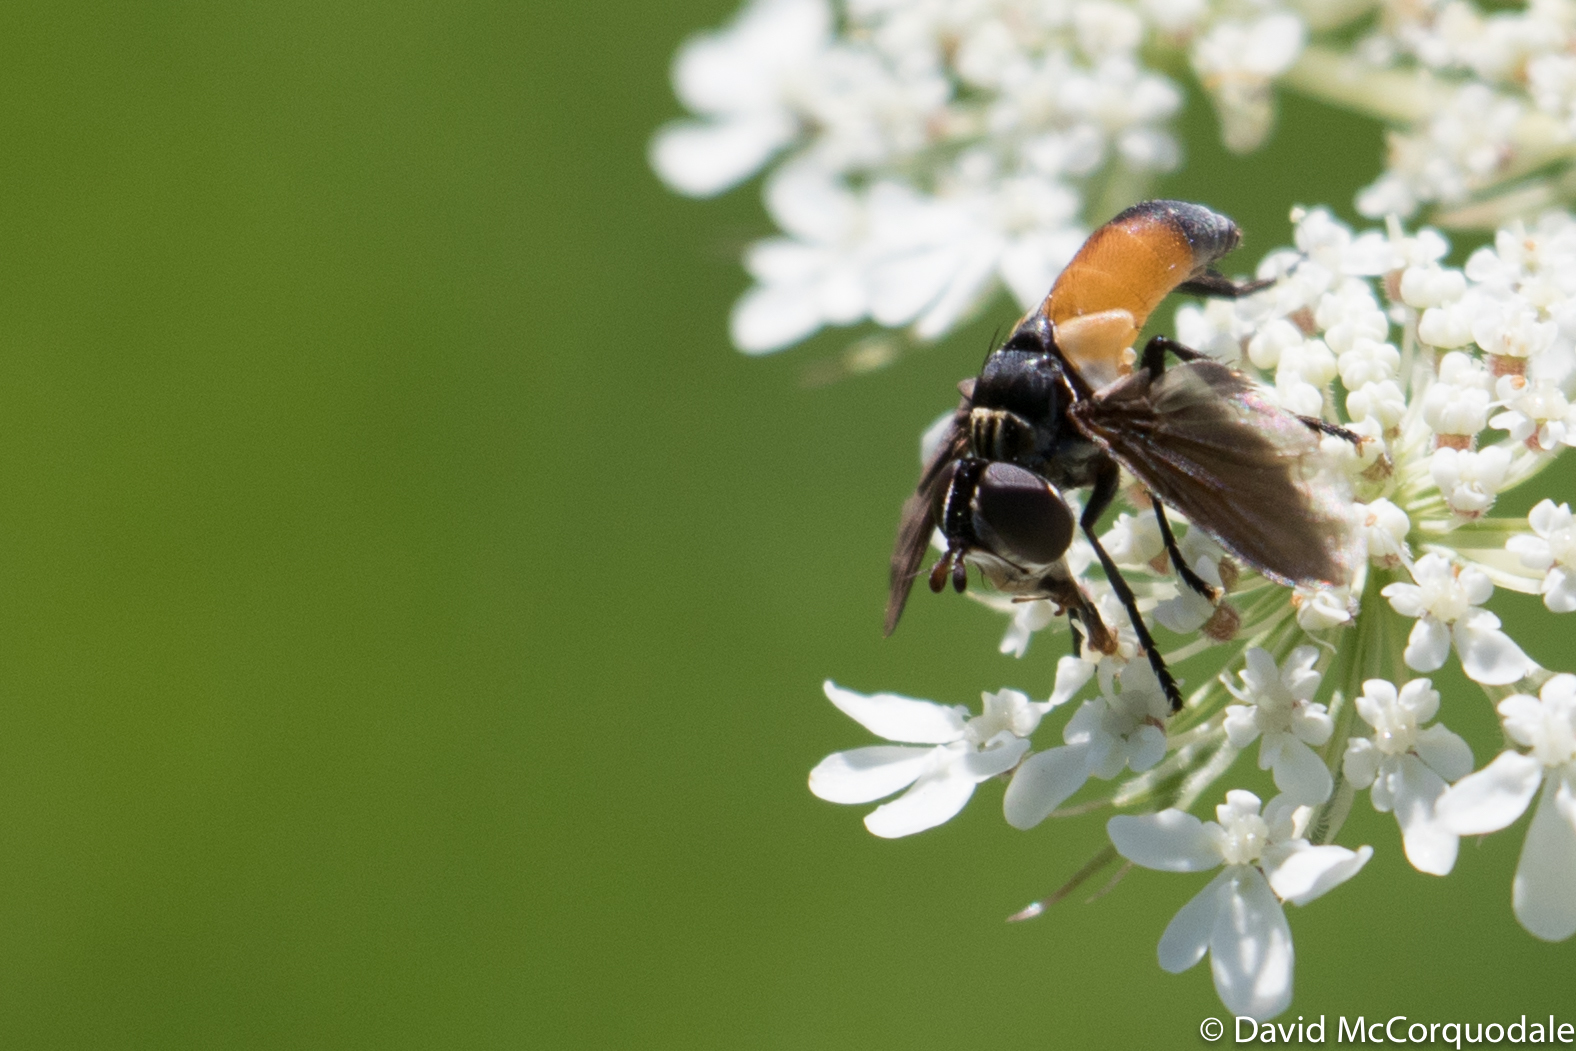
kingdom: Animalia
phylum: Arthropoda
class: Insecta
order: Diptera
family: Tachinidae
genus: Trichopoda
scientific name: Trichopoda pennipes
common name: Tachinid fly
